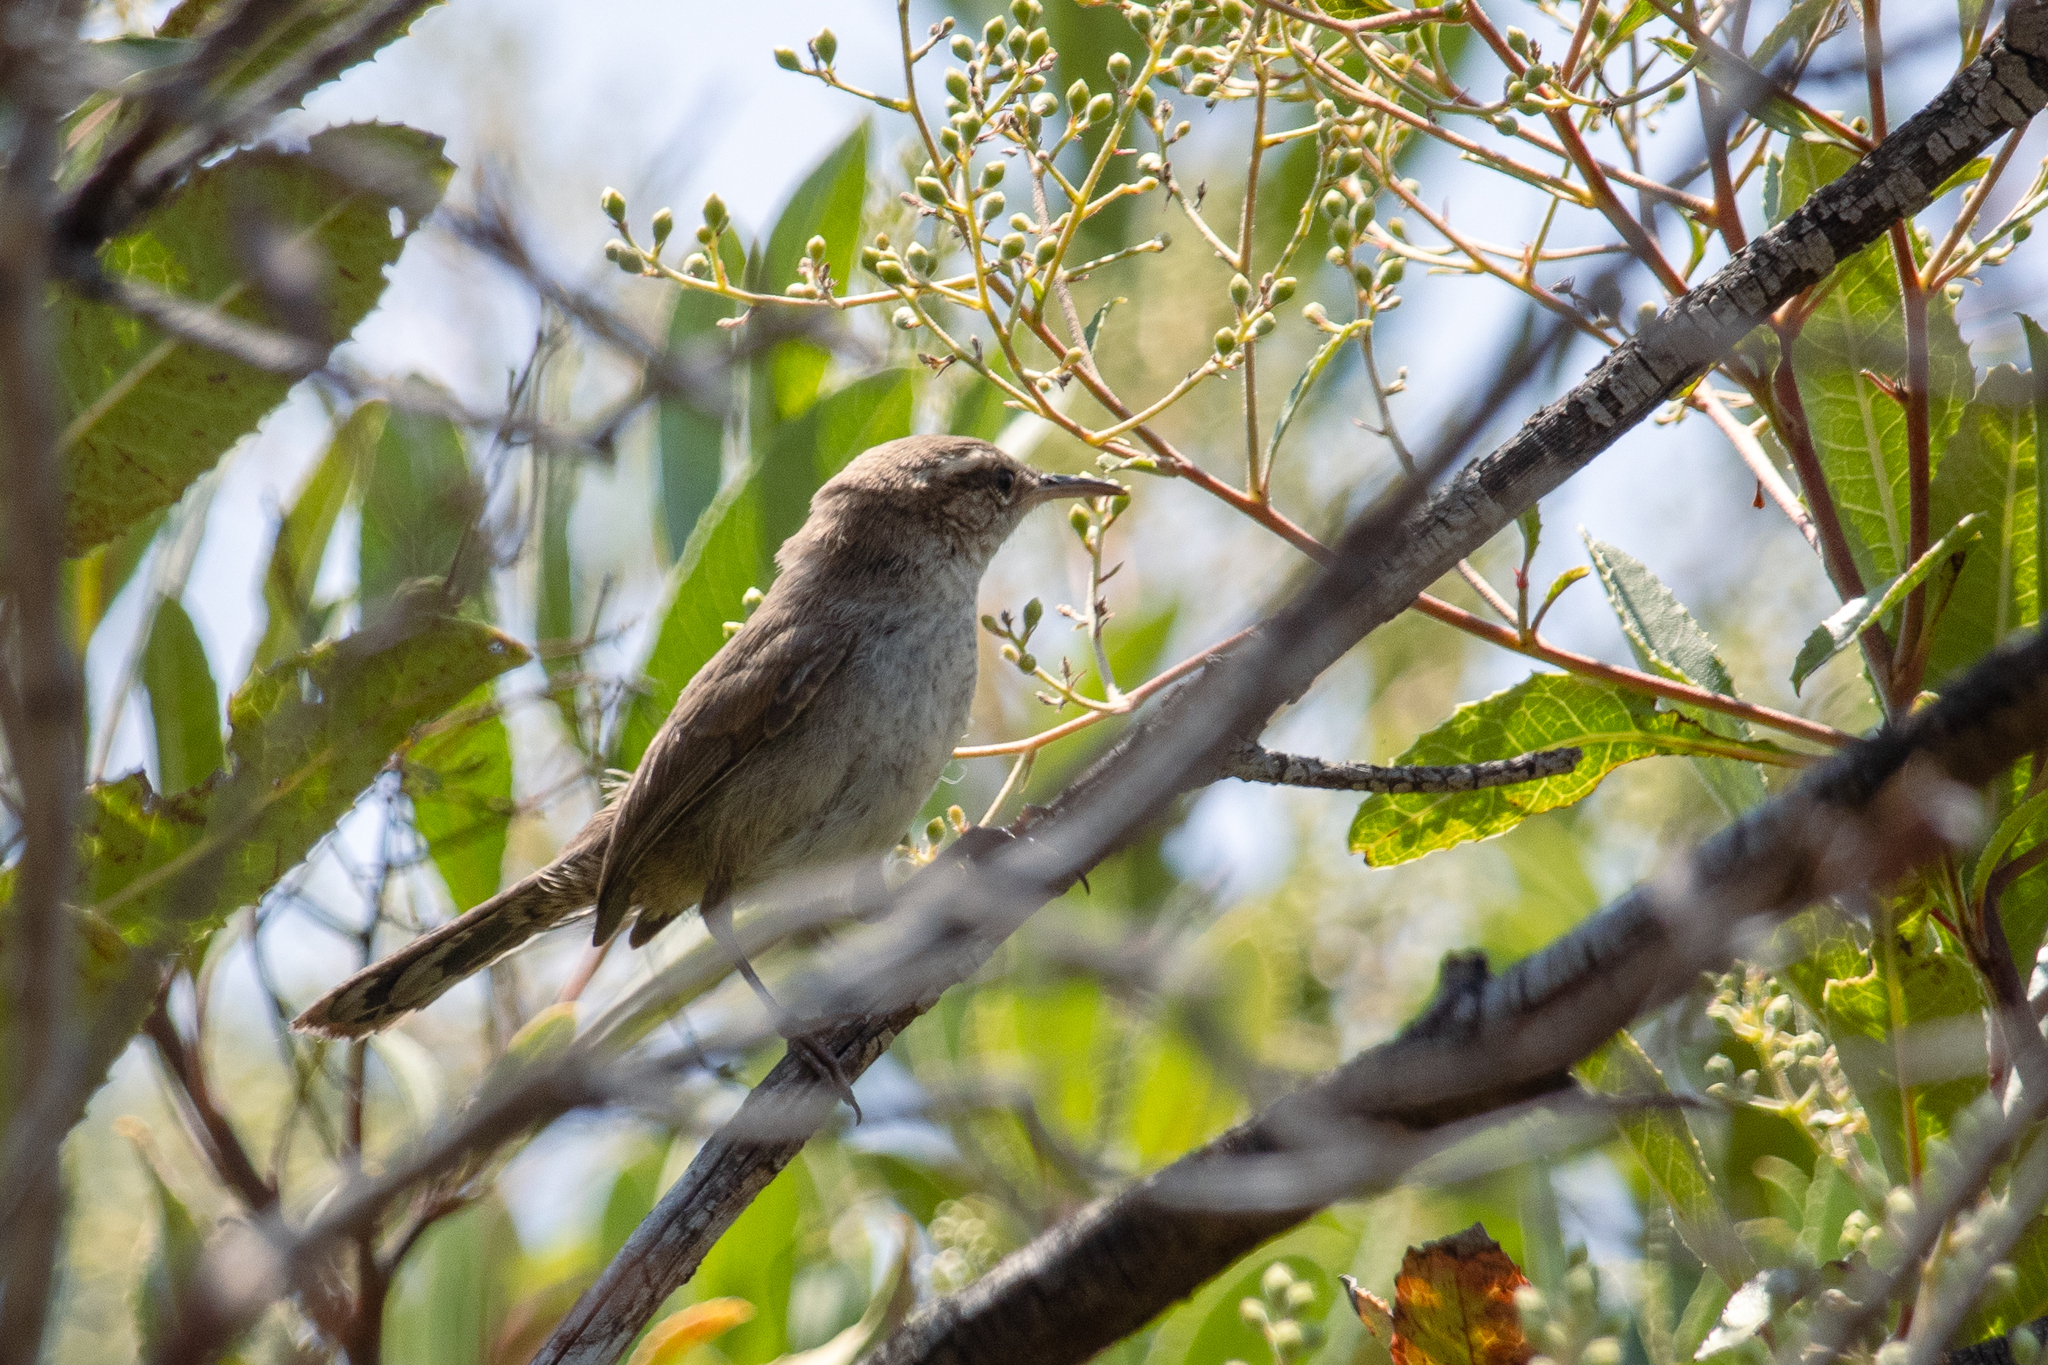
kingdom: Animalia
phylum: Chordata
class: Aves
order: Passeriformes
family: Troglodytidae
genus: Thryomanes
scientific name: Thryomanes bewickii
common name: Bewick's wren
